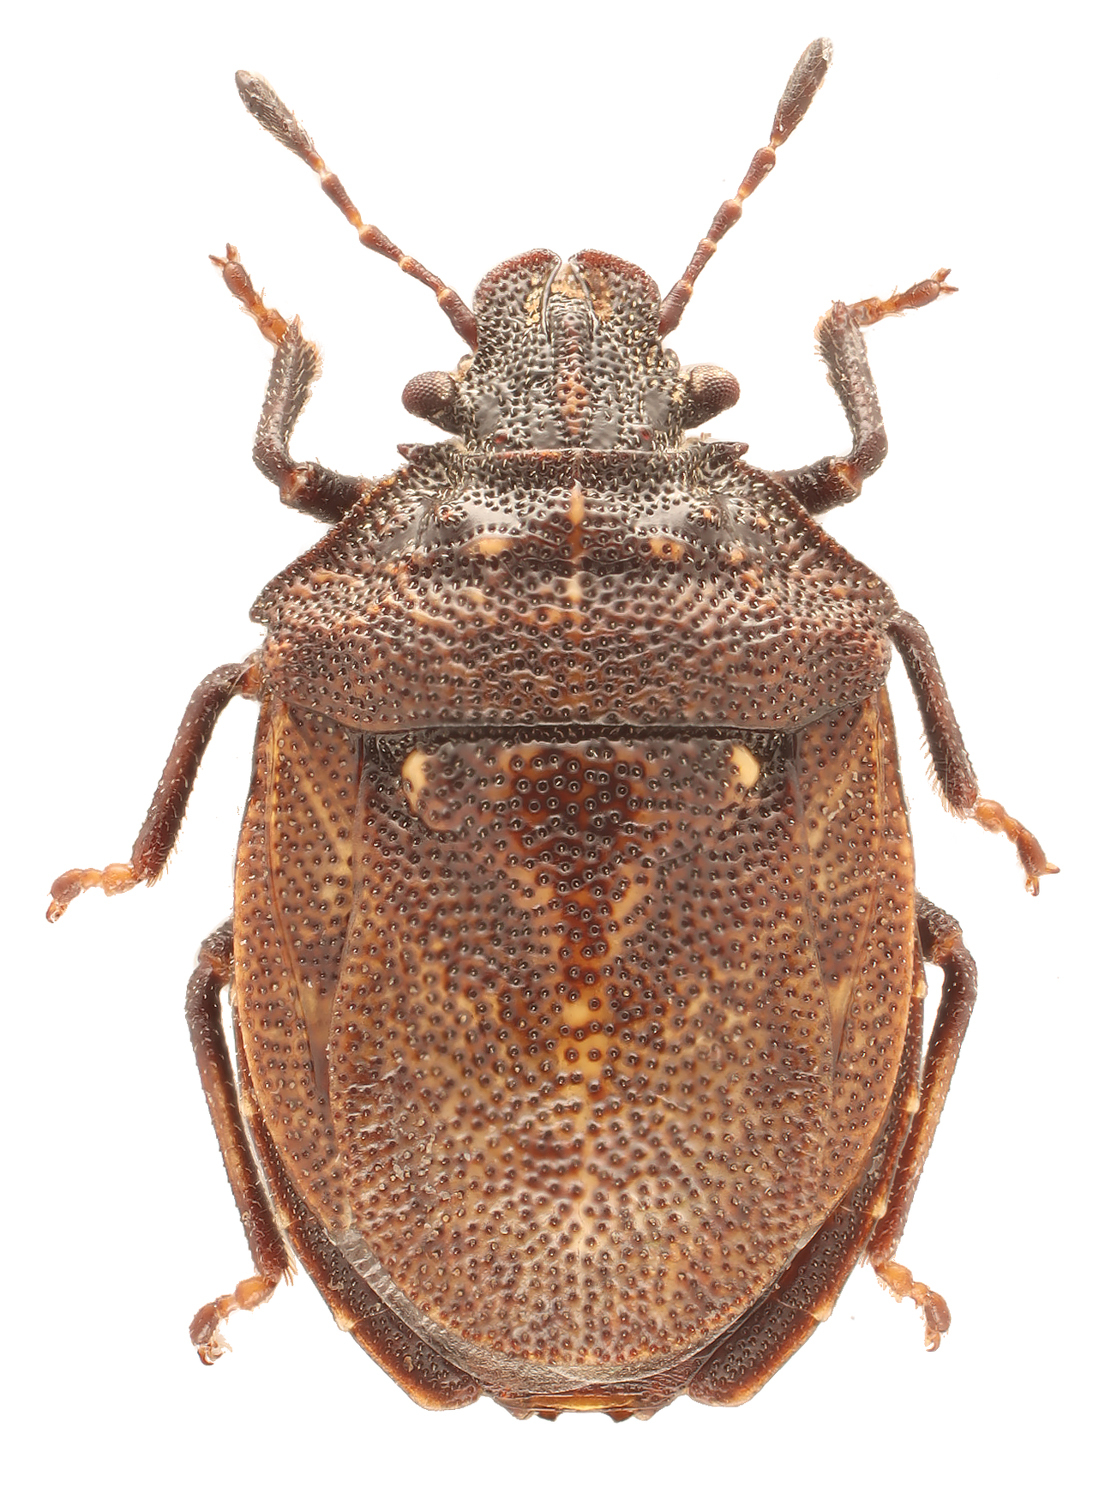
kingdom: Animalia
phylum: Arthropoda
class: Insecta
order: Hemiptera
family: Pentatomidae
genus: Amaurochrous
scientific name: Amaurochrous brevitylus
